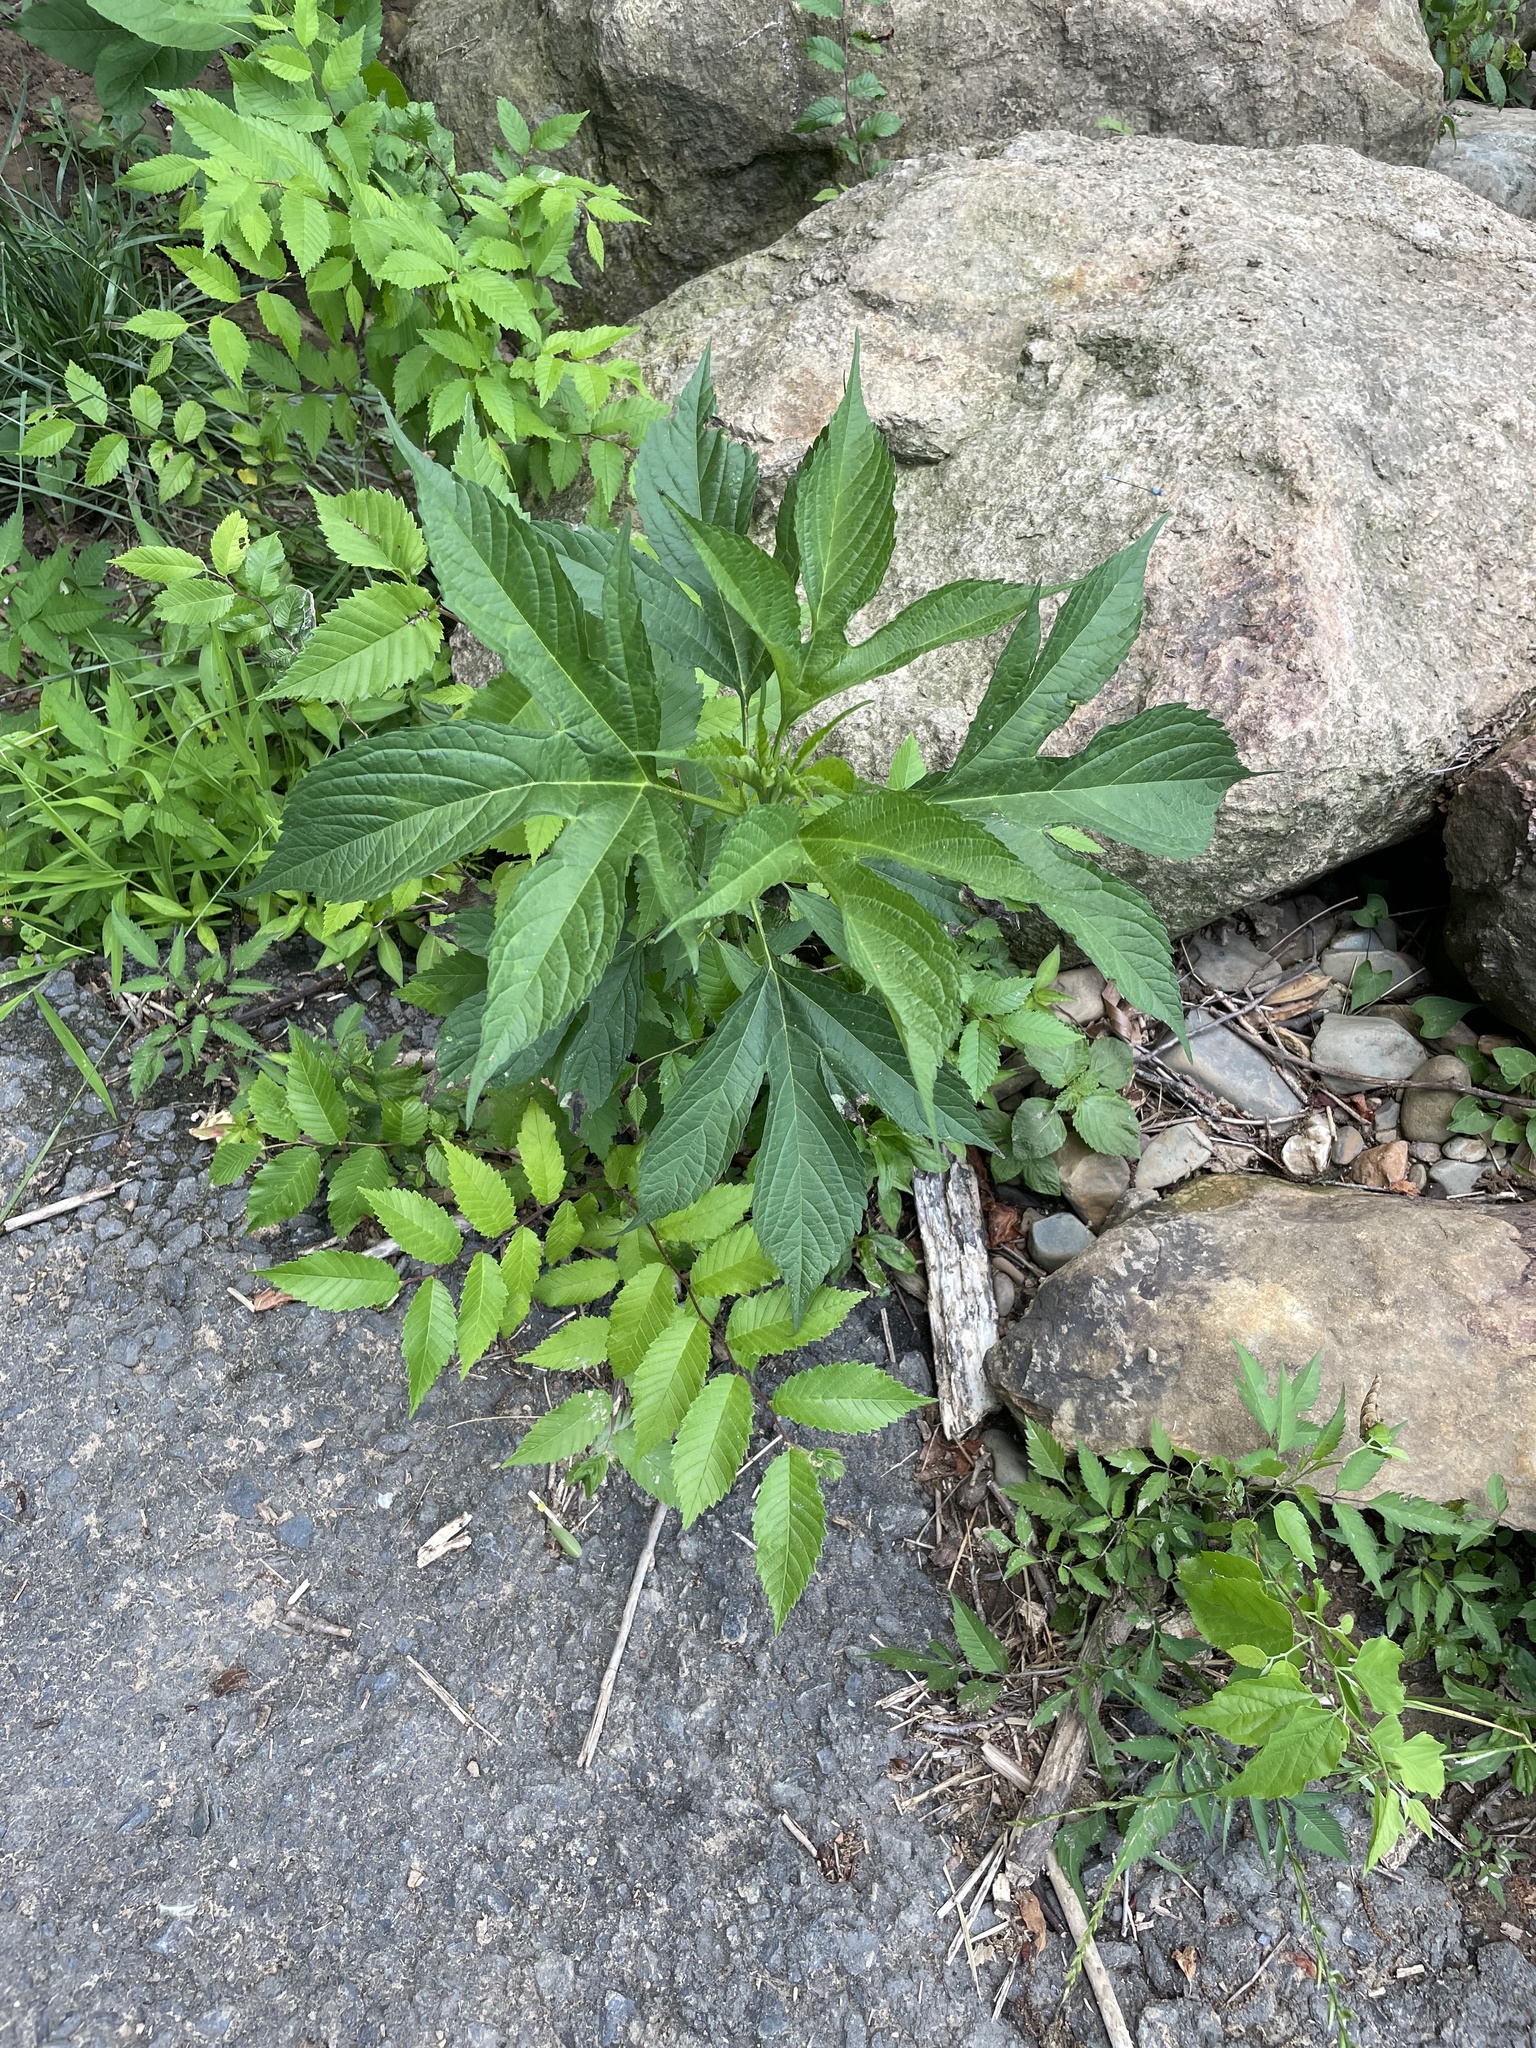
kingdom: Plantae
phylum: Tracheophyta
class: Magnoliopsida
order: Asterales
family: Asteraceae
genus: Ambrosia
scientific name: Ambrosia trifida
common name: Giant ragweed
